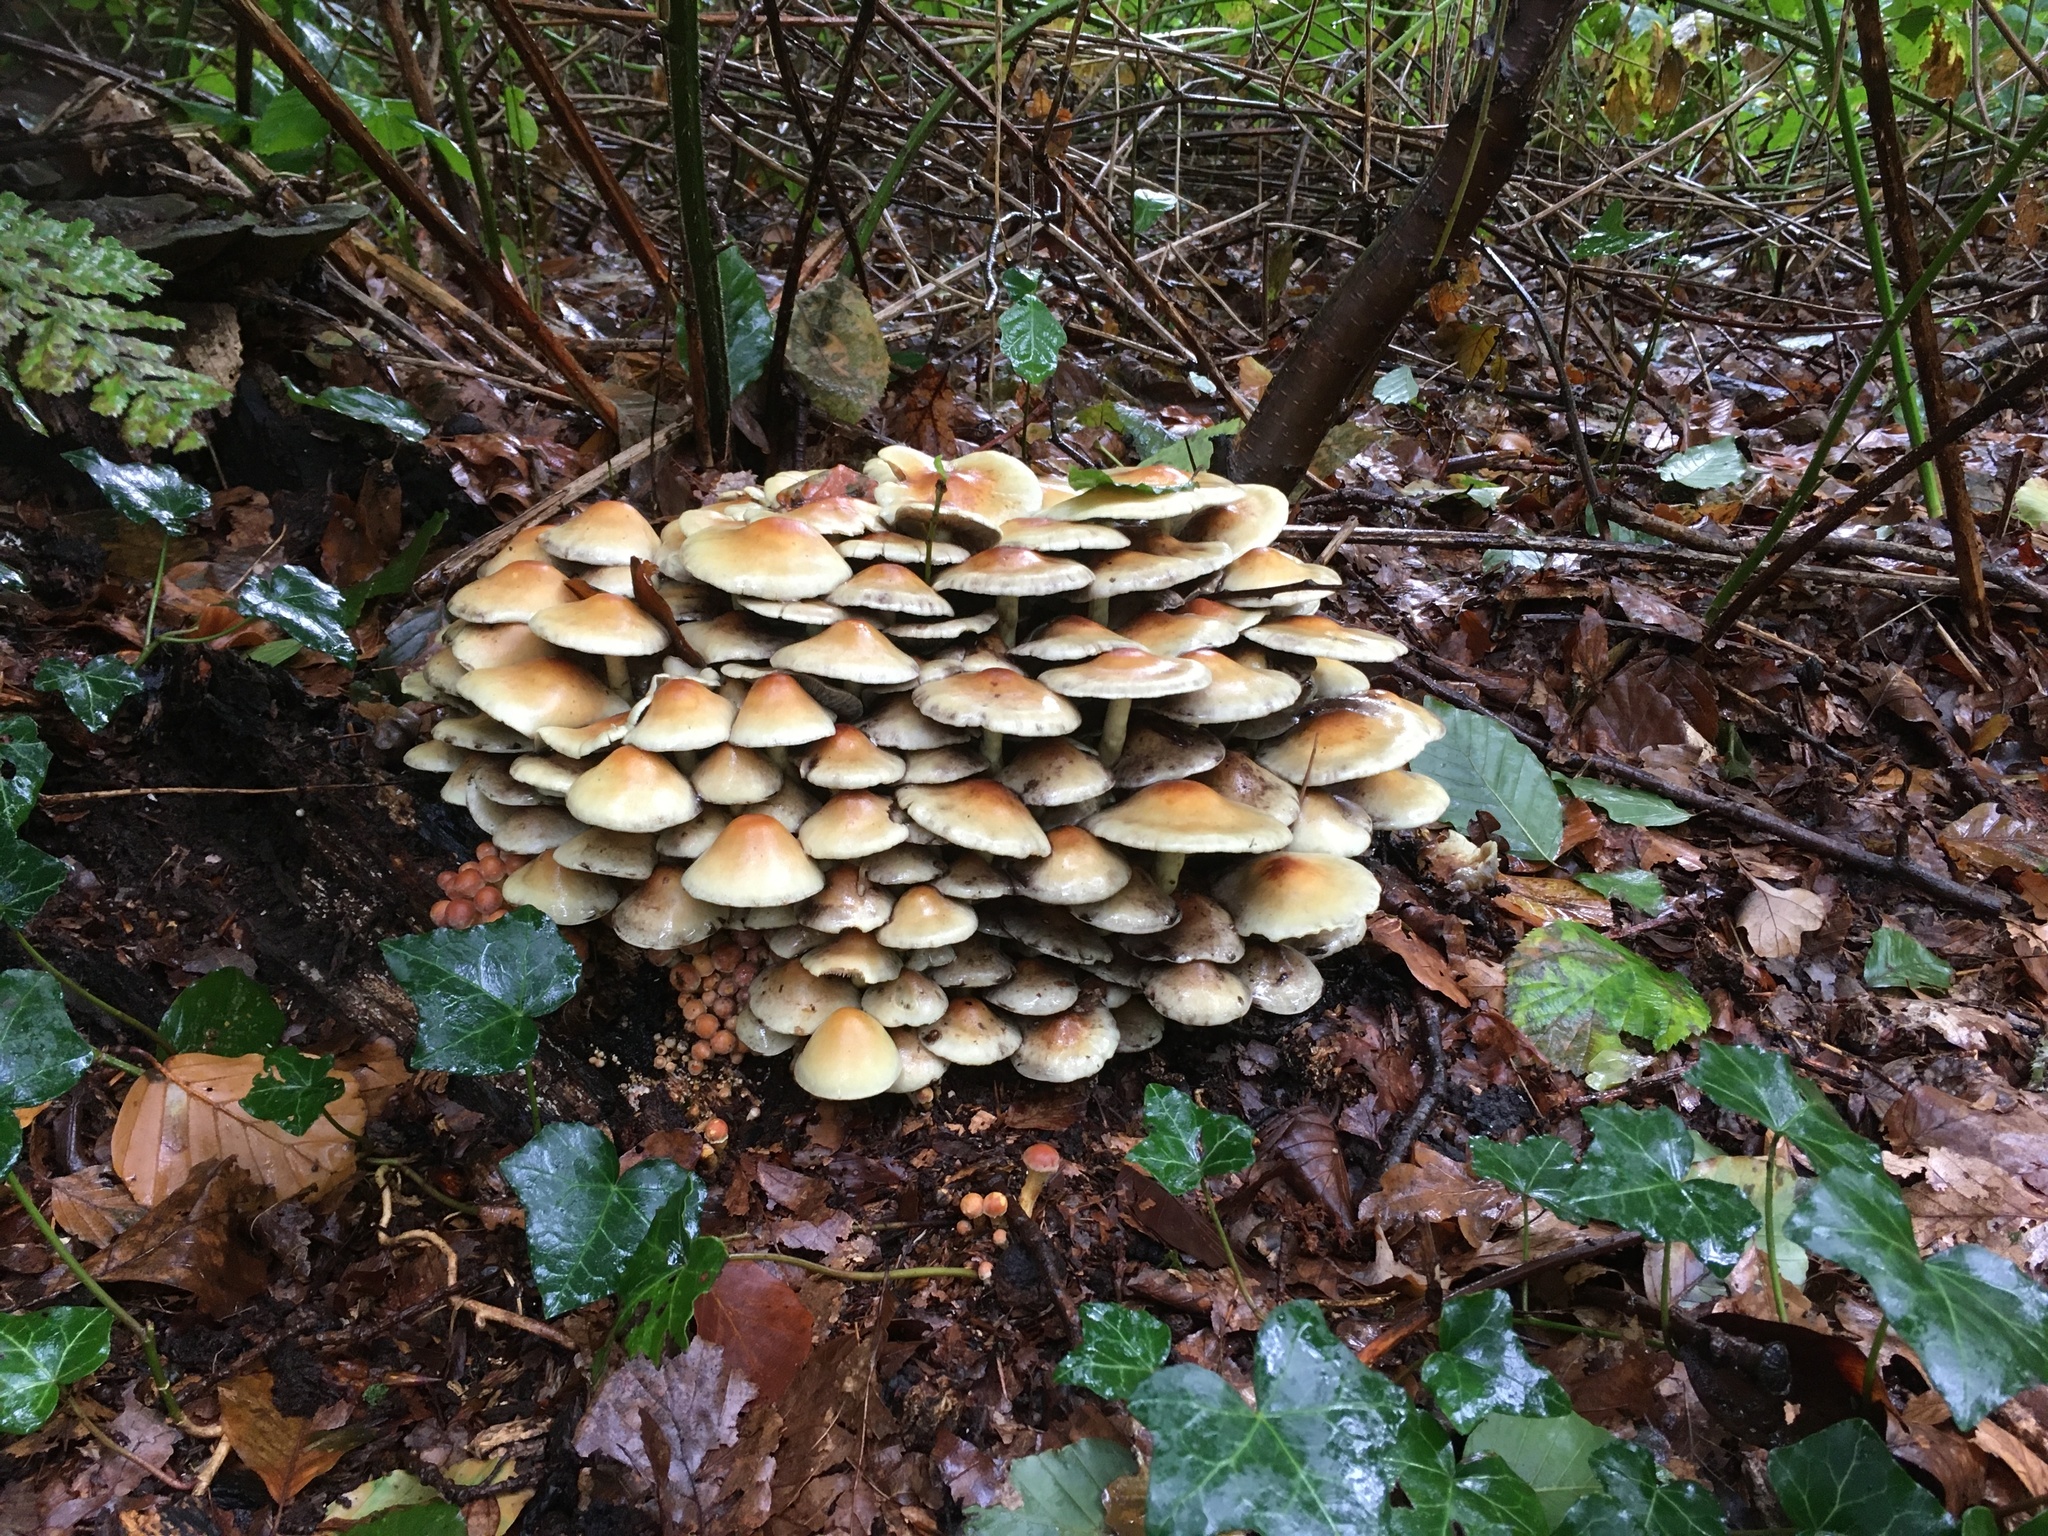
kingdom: Fungi
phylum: Basidiomycota
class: Agaricomycetes
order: Polyporales
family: Fomitopsidaceae
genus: Fomitopsis
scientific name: Fomitopsis pinicola
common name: Red-belted bracket
